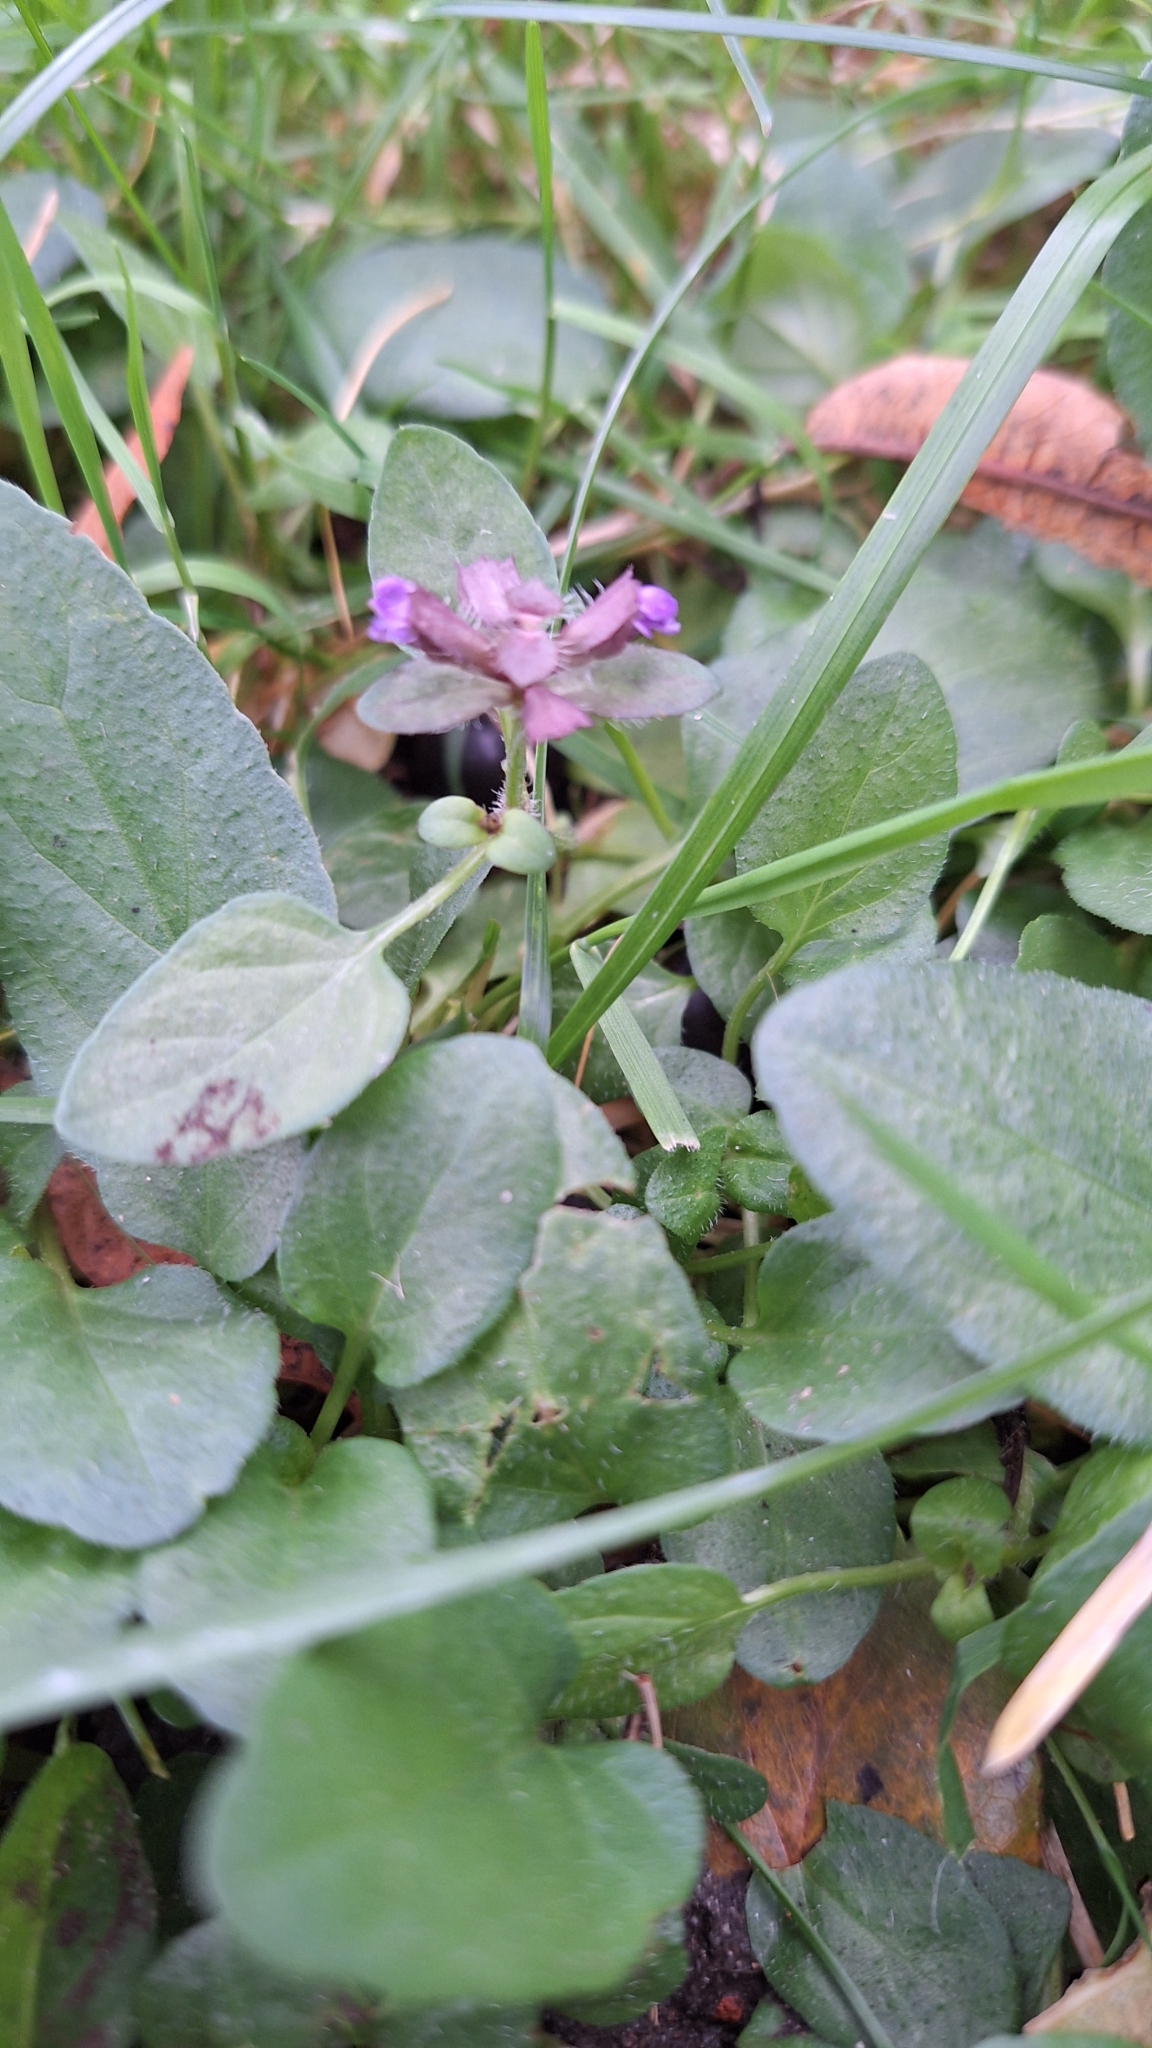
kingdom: Plantae
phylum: Tracheophyta
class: Magnoliopsida
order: Lamiales
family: Lamiaceae
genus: Prunella
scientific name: Prunella vulgaris
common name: Heal-all
